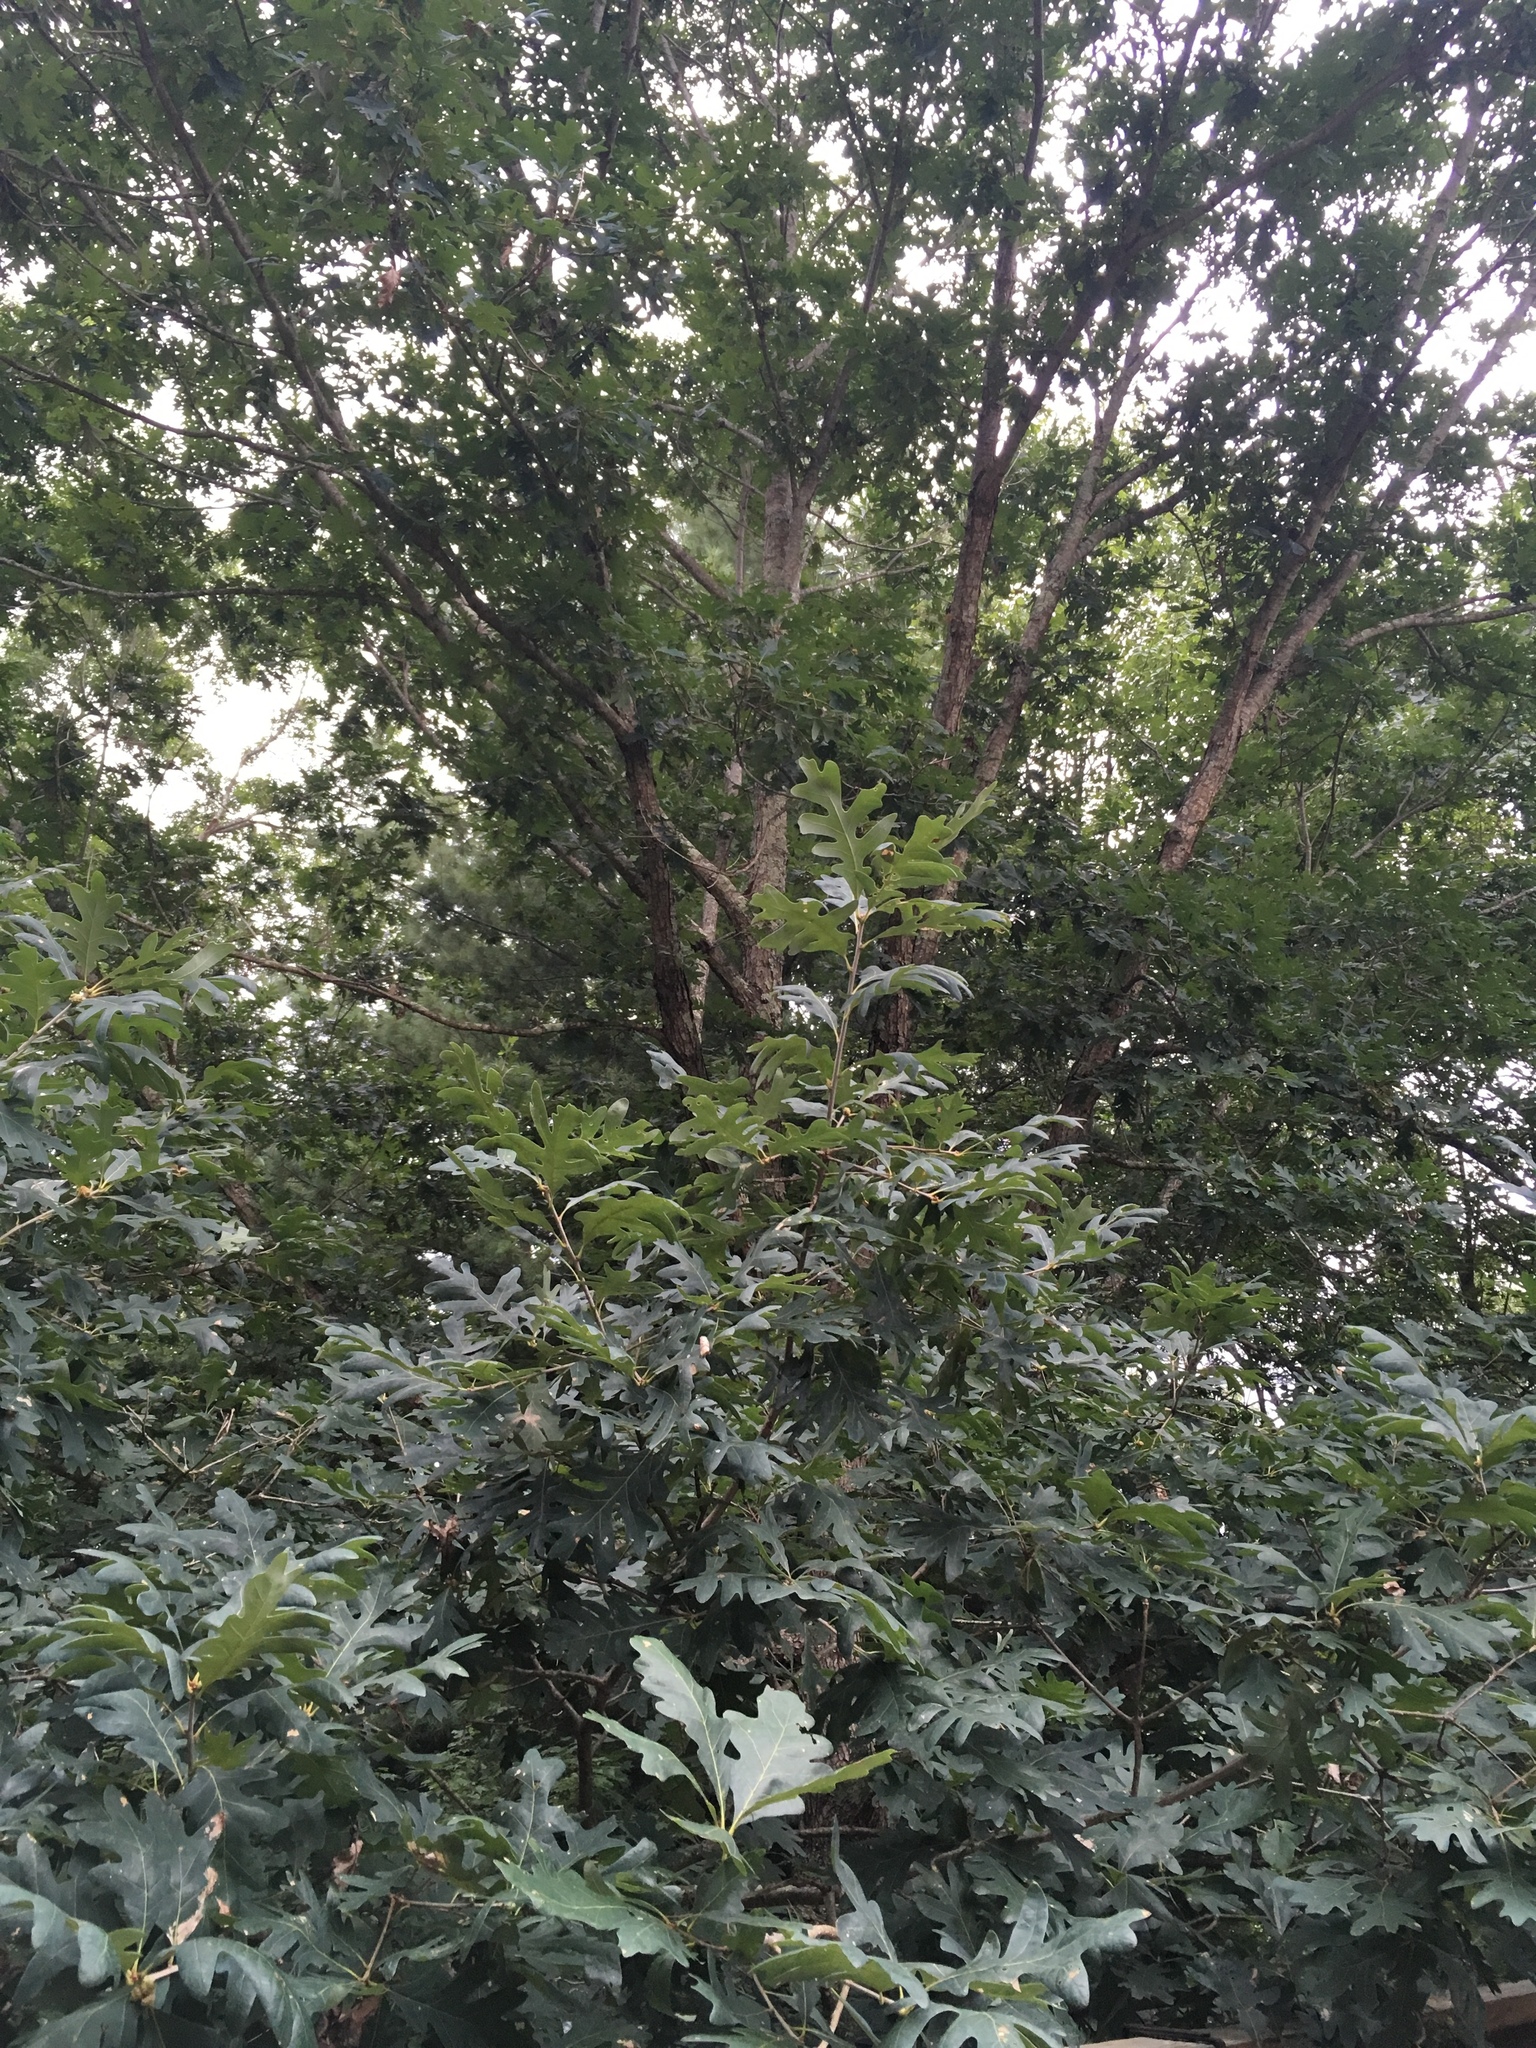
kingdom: Plantae
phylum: Tracheophyta
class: Magnoliopsida
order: Fagales
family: Fagaceae
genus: Quercus
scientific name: Quercus alba
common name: White oak
